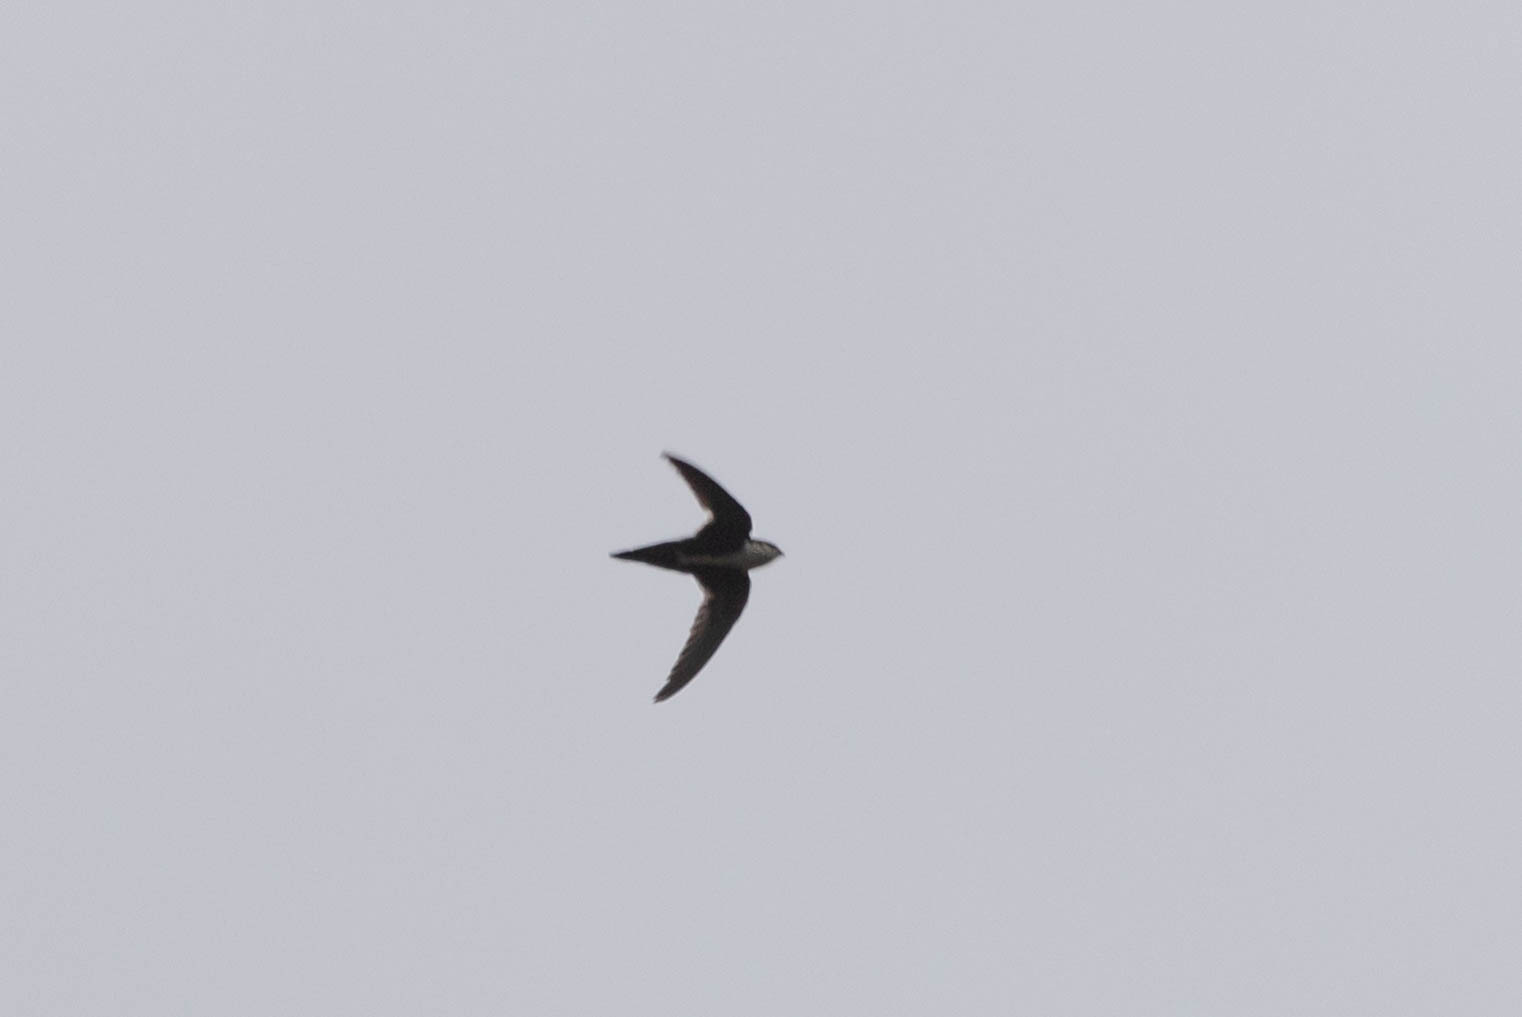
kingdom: Animalia
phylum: Chordata
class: Aves
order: Apodiformes
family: Apodidae
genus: Aeronautes
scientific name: Aeronautes saxatalis
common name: White-throated swift
